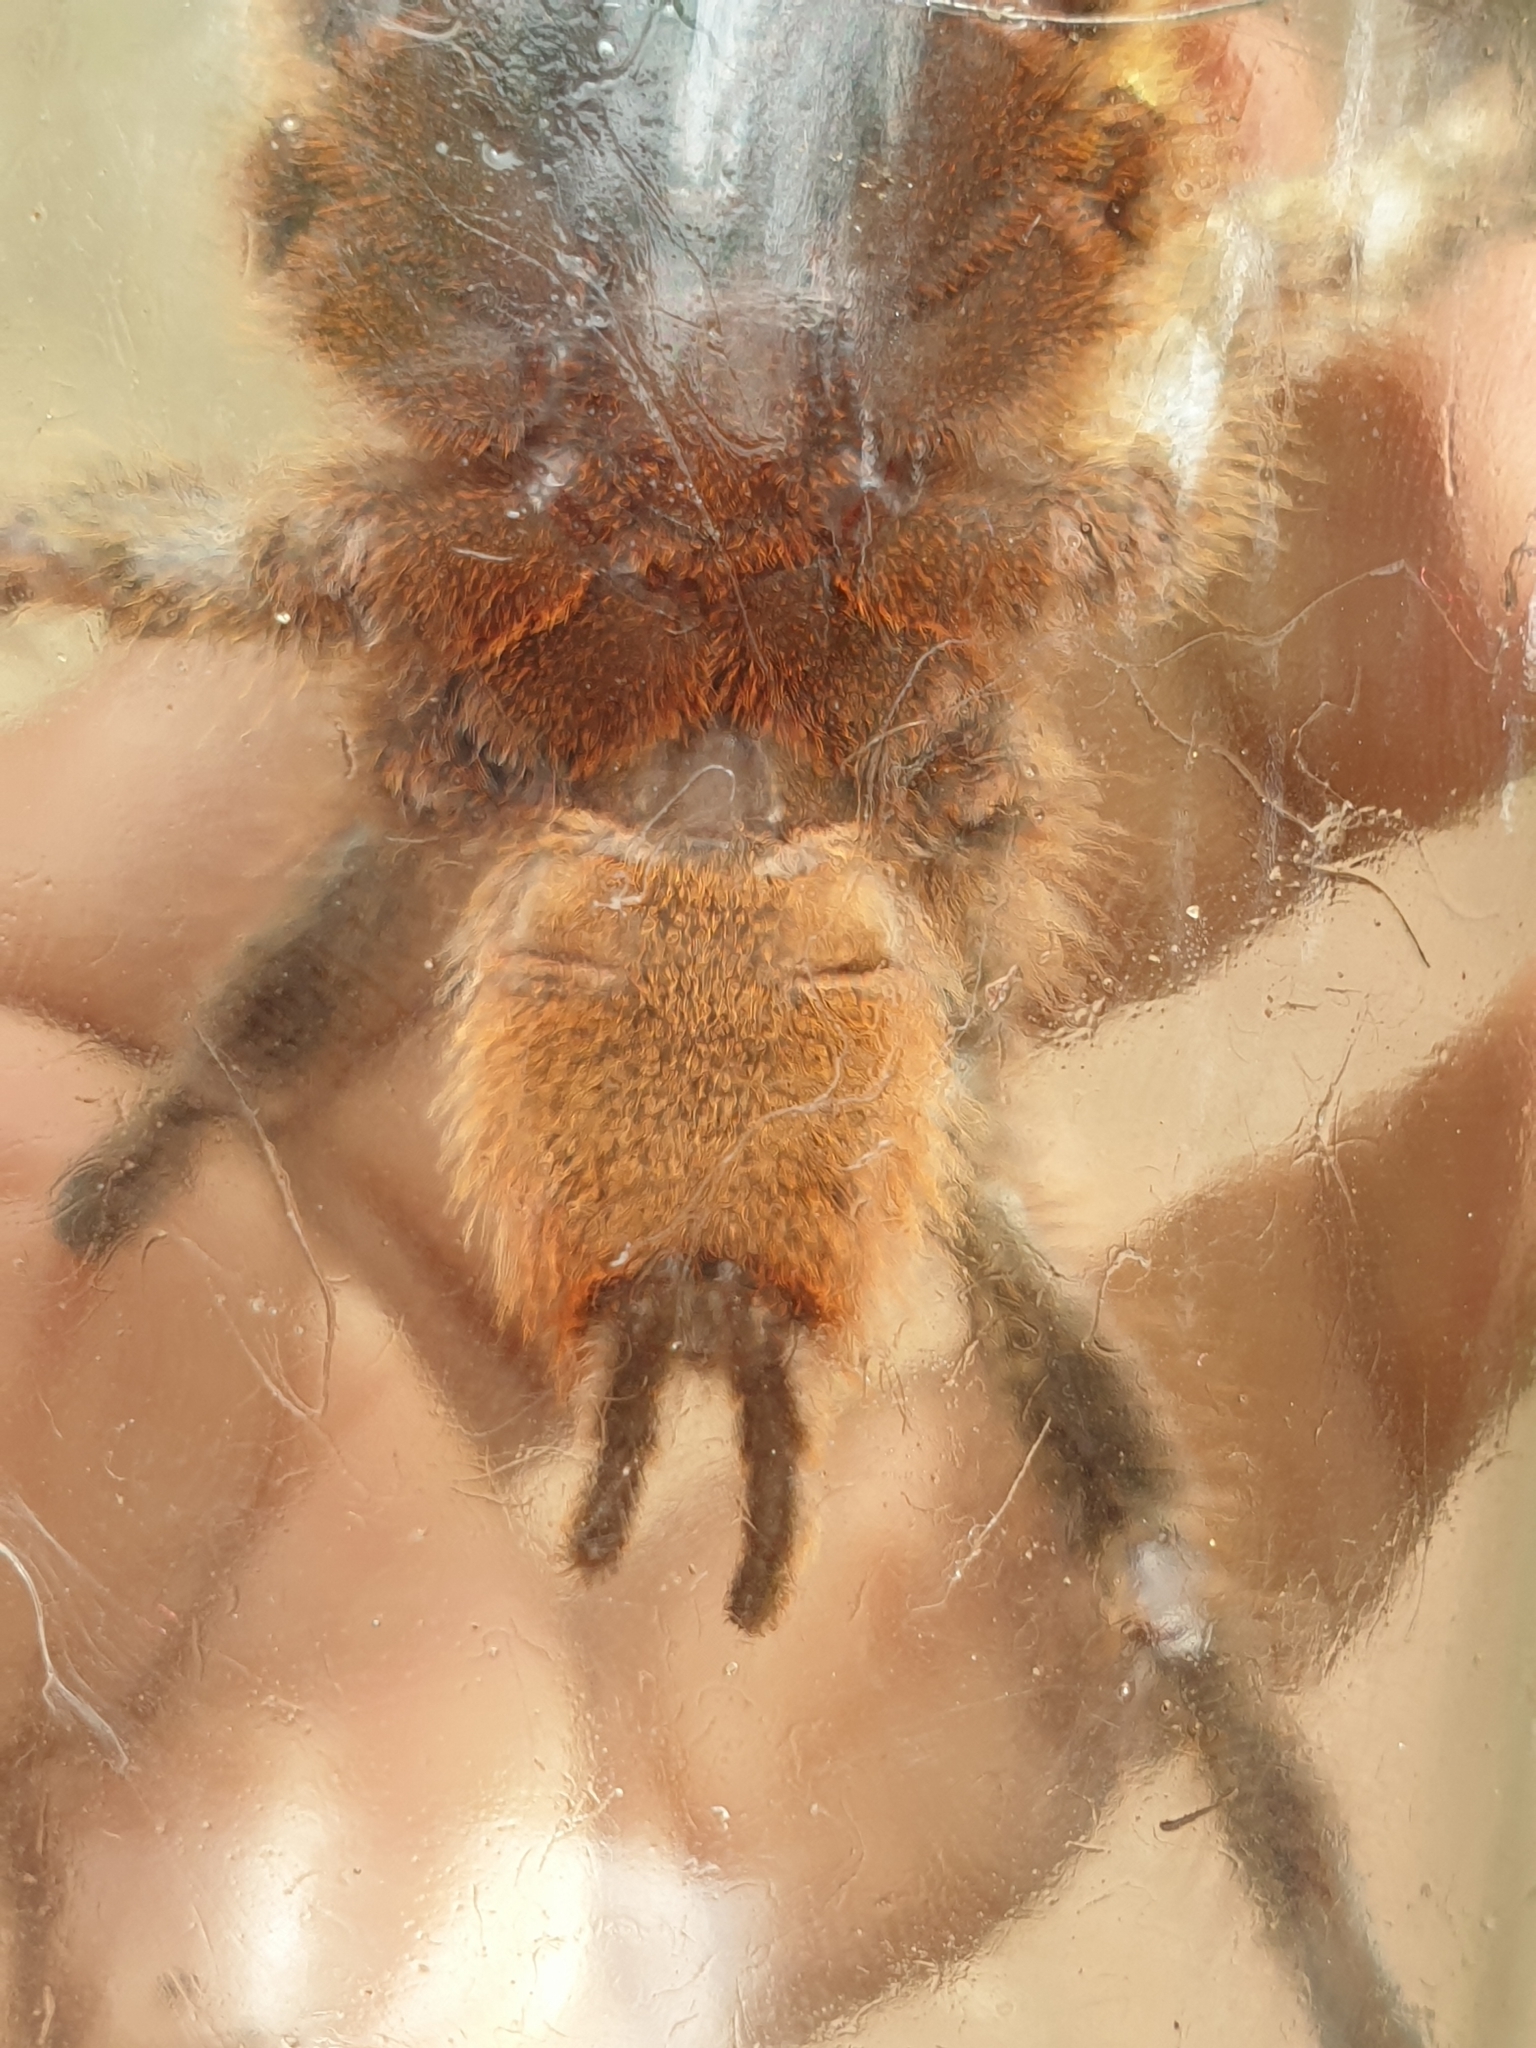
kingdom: Animalia
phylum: Arthropoda
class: Arachnida
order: Araneae
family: Theraphosidae
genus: Poecilotheria
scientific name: Poecilotheria hanumavilasumica
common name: Rameshwaram ornamental
